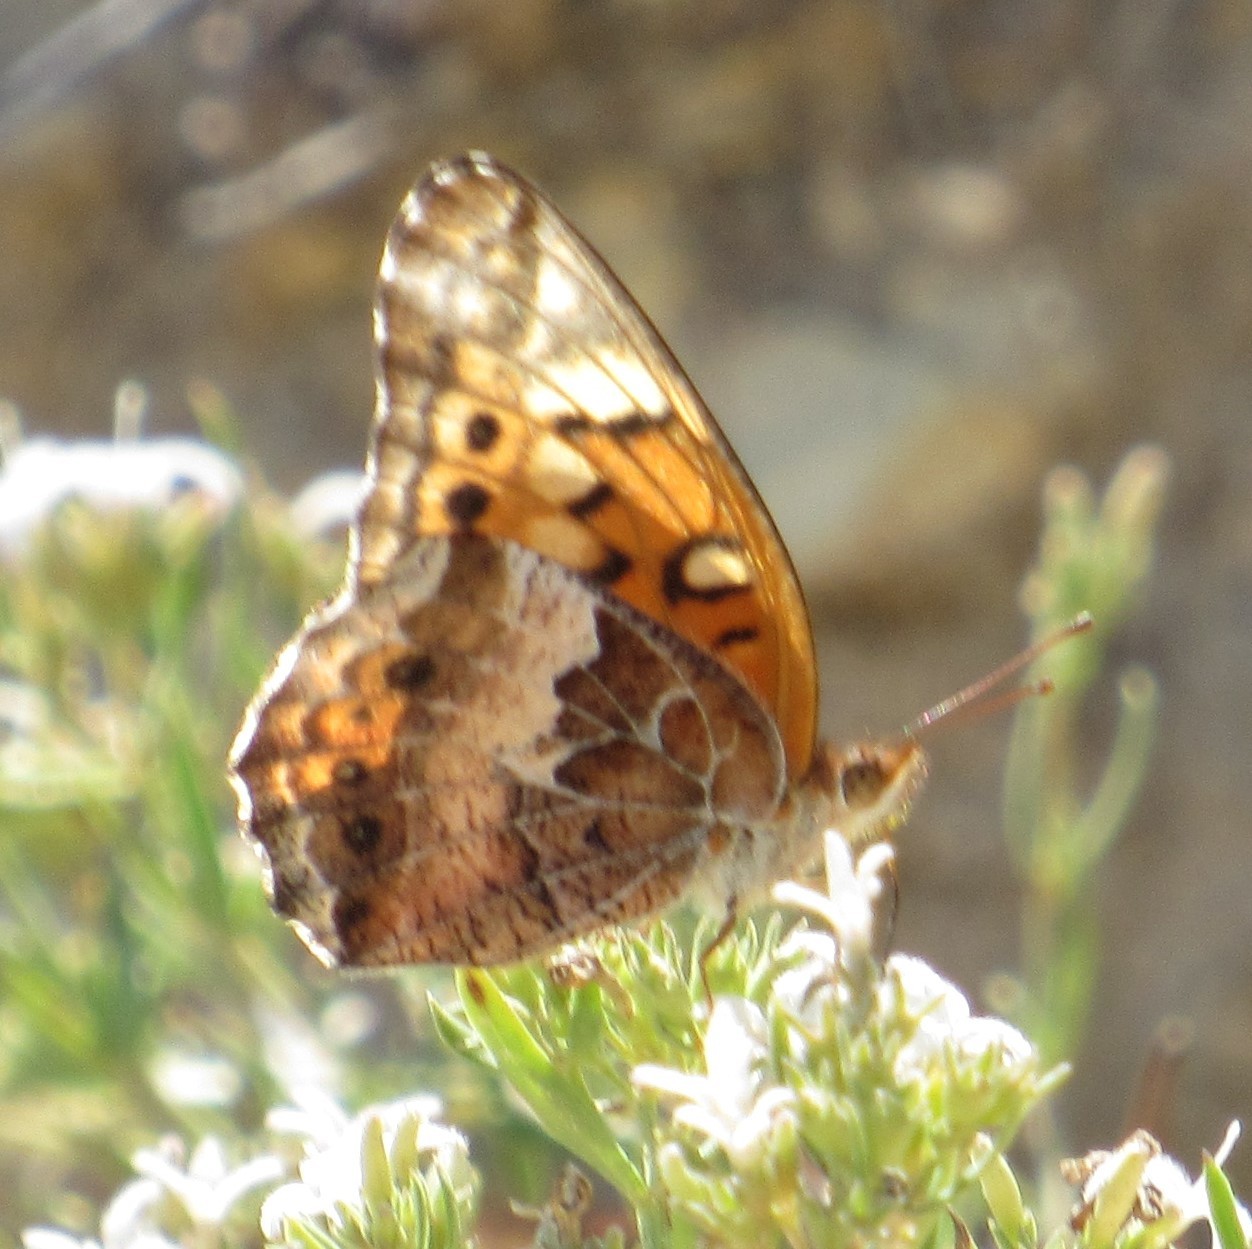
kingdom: Animalia
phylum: Arthropoda
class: Insecta
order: Lepidoptera
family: Nymphalidae
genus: Euptoieta
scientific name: Euptoieta claudia
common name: Variegated fritillary
